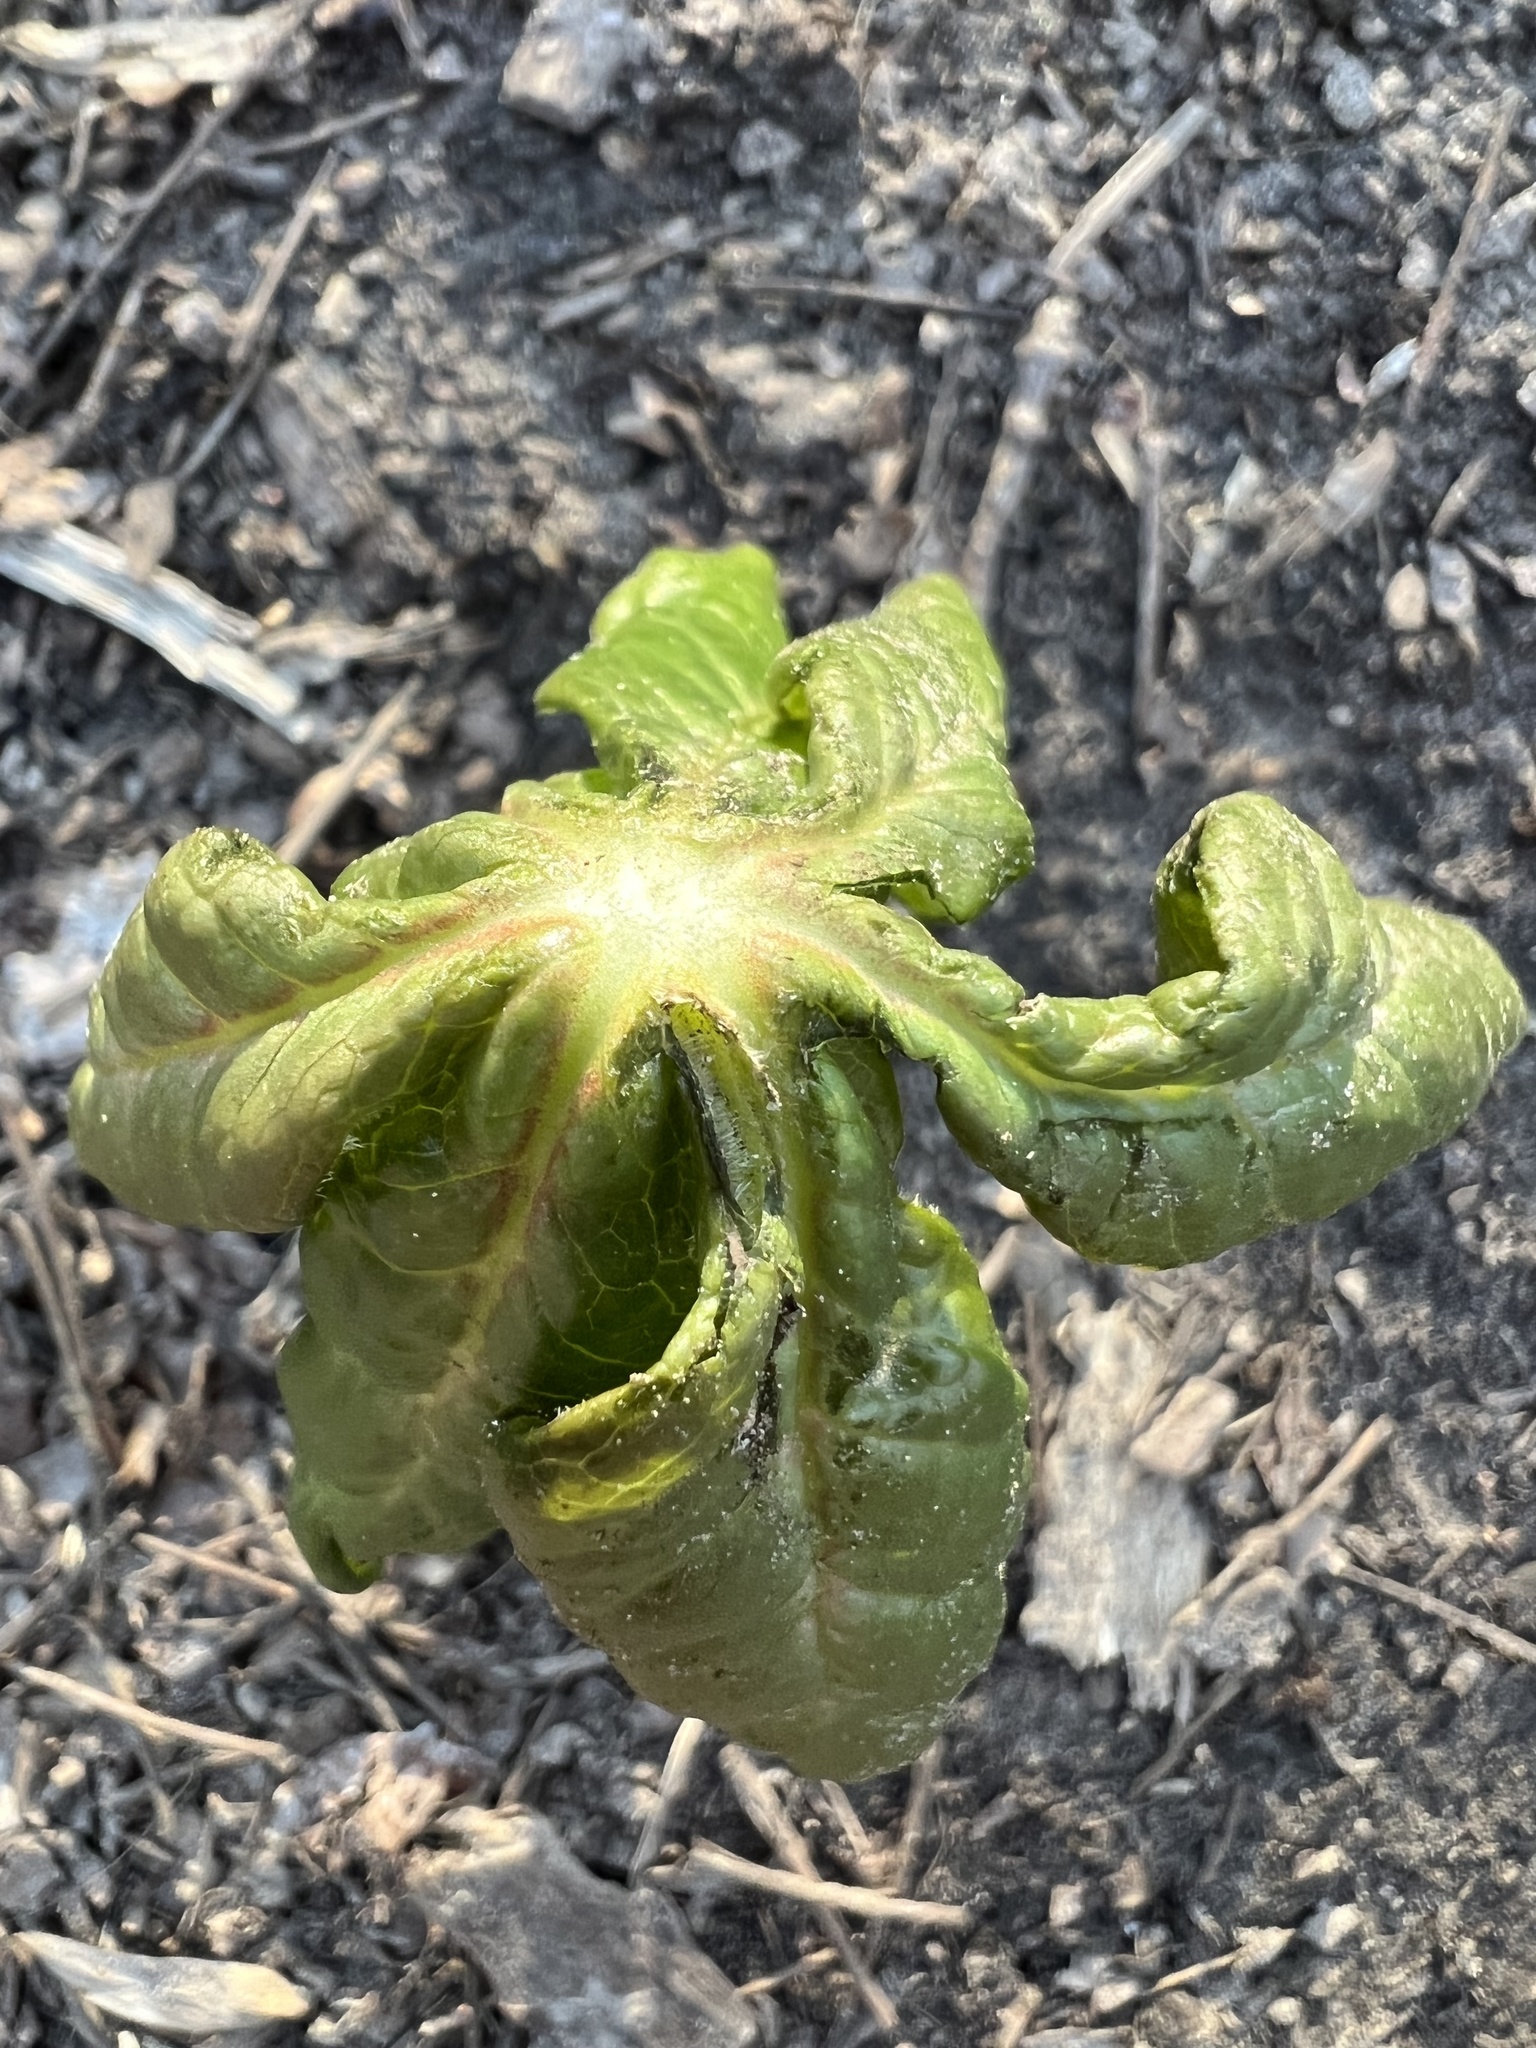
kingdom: Plantae
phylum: Tracheophyta
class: Magnoliopsida
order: Ranunculales
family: Berberidaceae
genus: Podophyllum
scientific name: Podophyllum peltatum
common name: Wild mandrake
